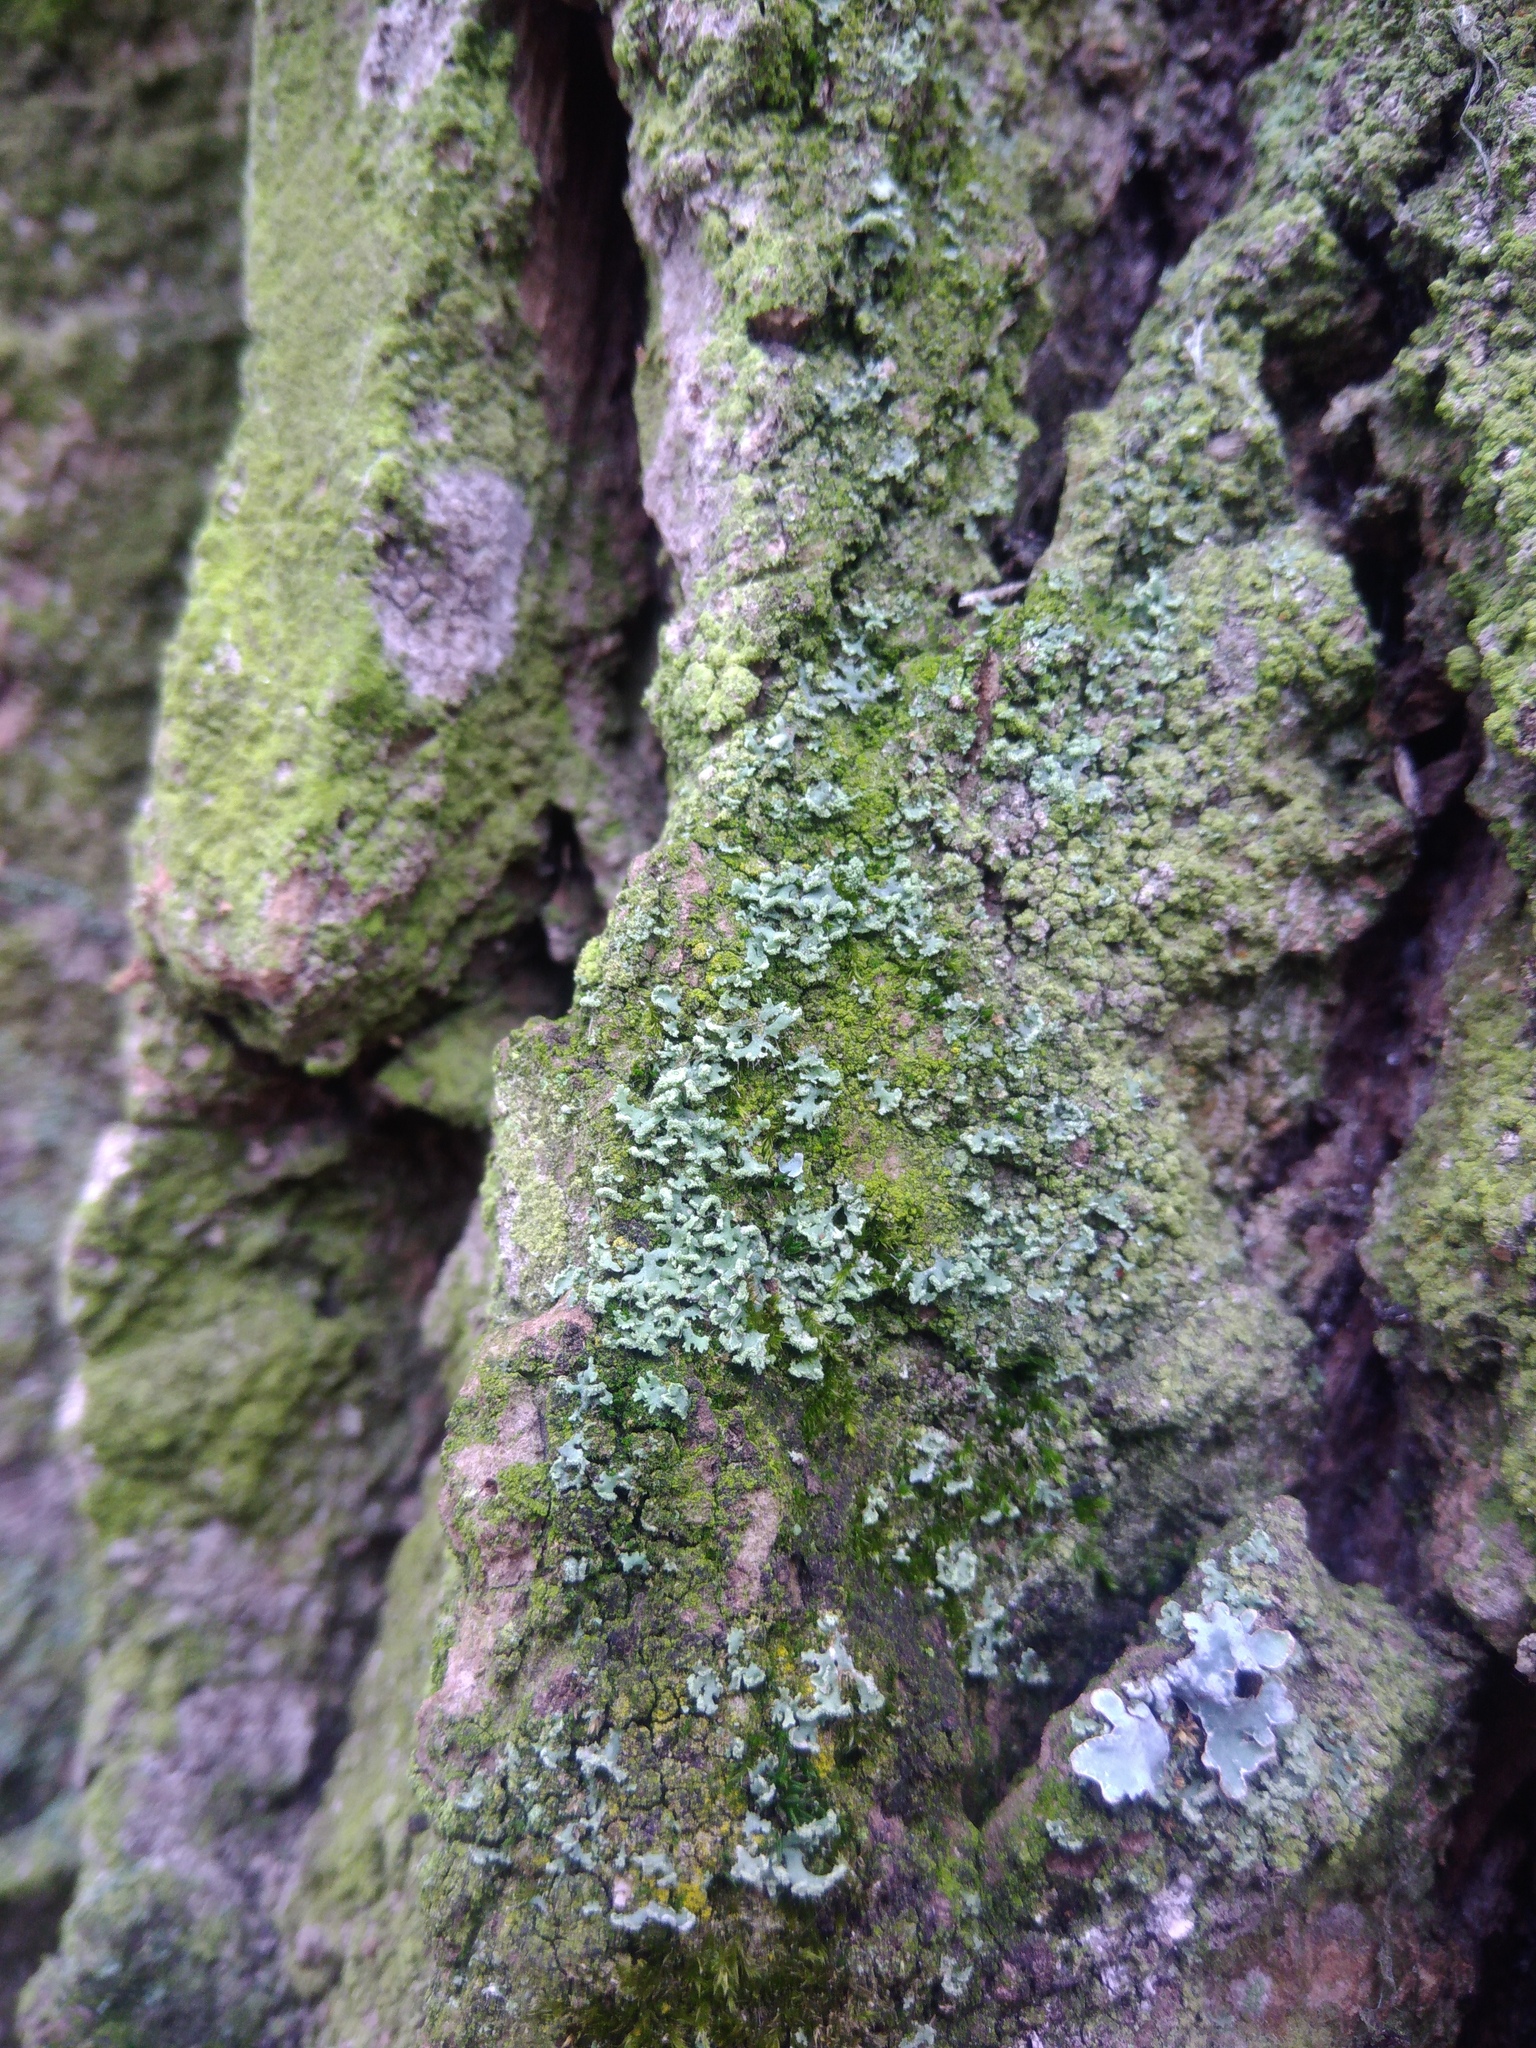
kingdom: Fungi
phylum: Ascomycota
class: Lecanoromycetes
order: Caliciales
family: Physciaceae
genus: Physcia
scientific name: Physcia tenella
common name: Fringed rosette lichen
